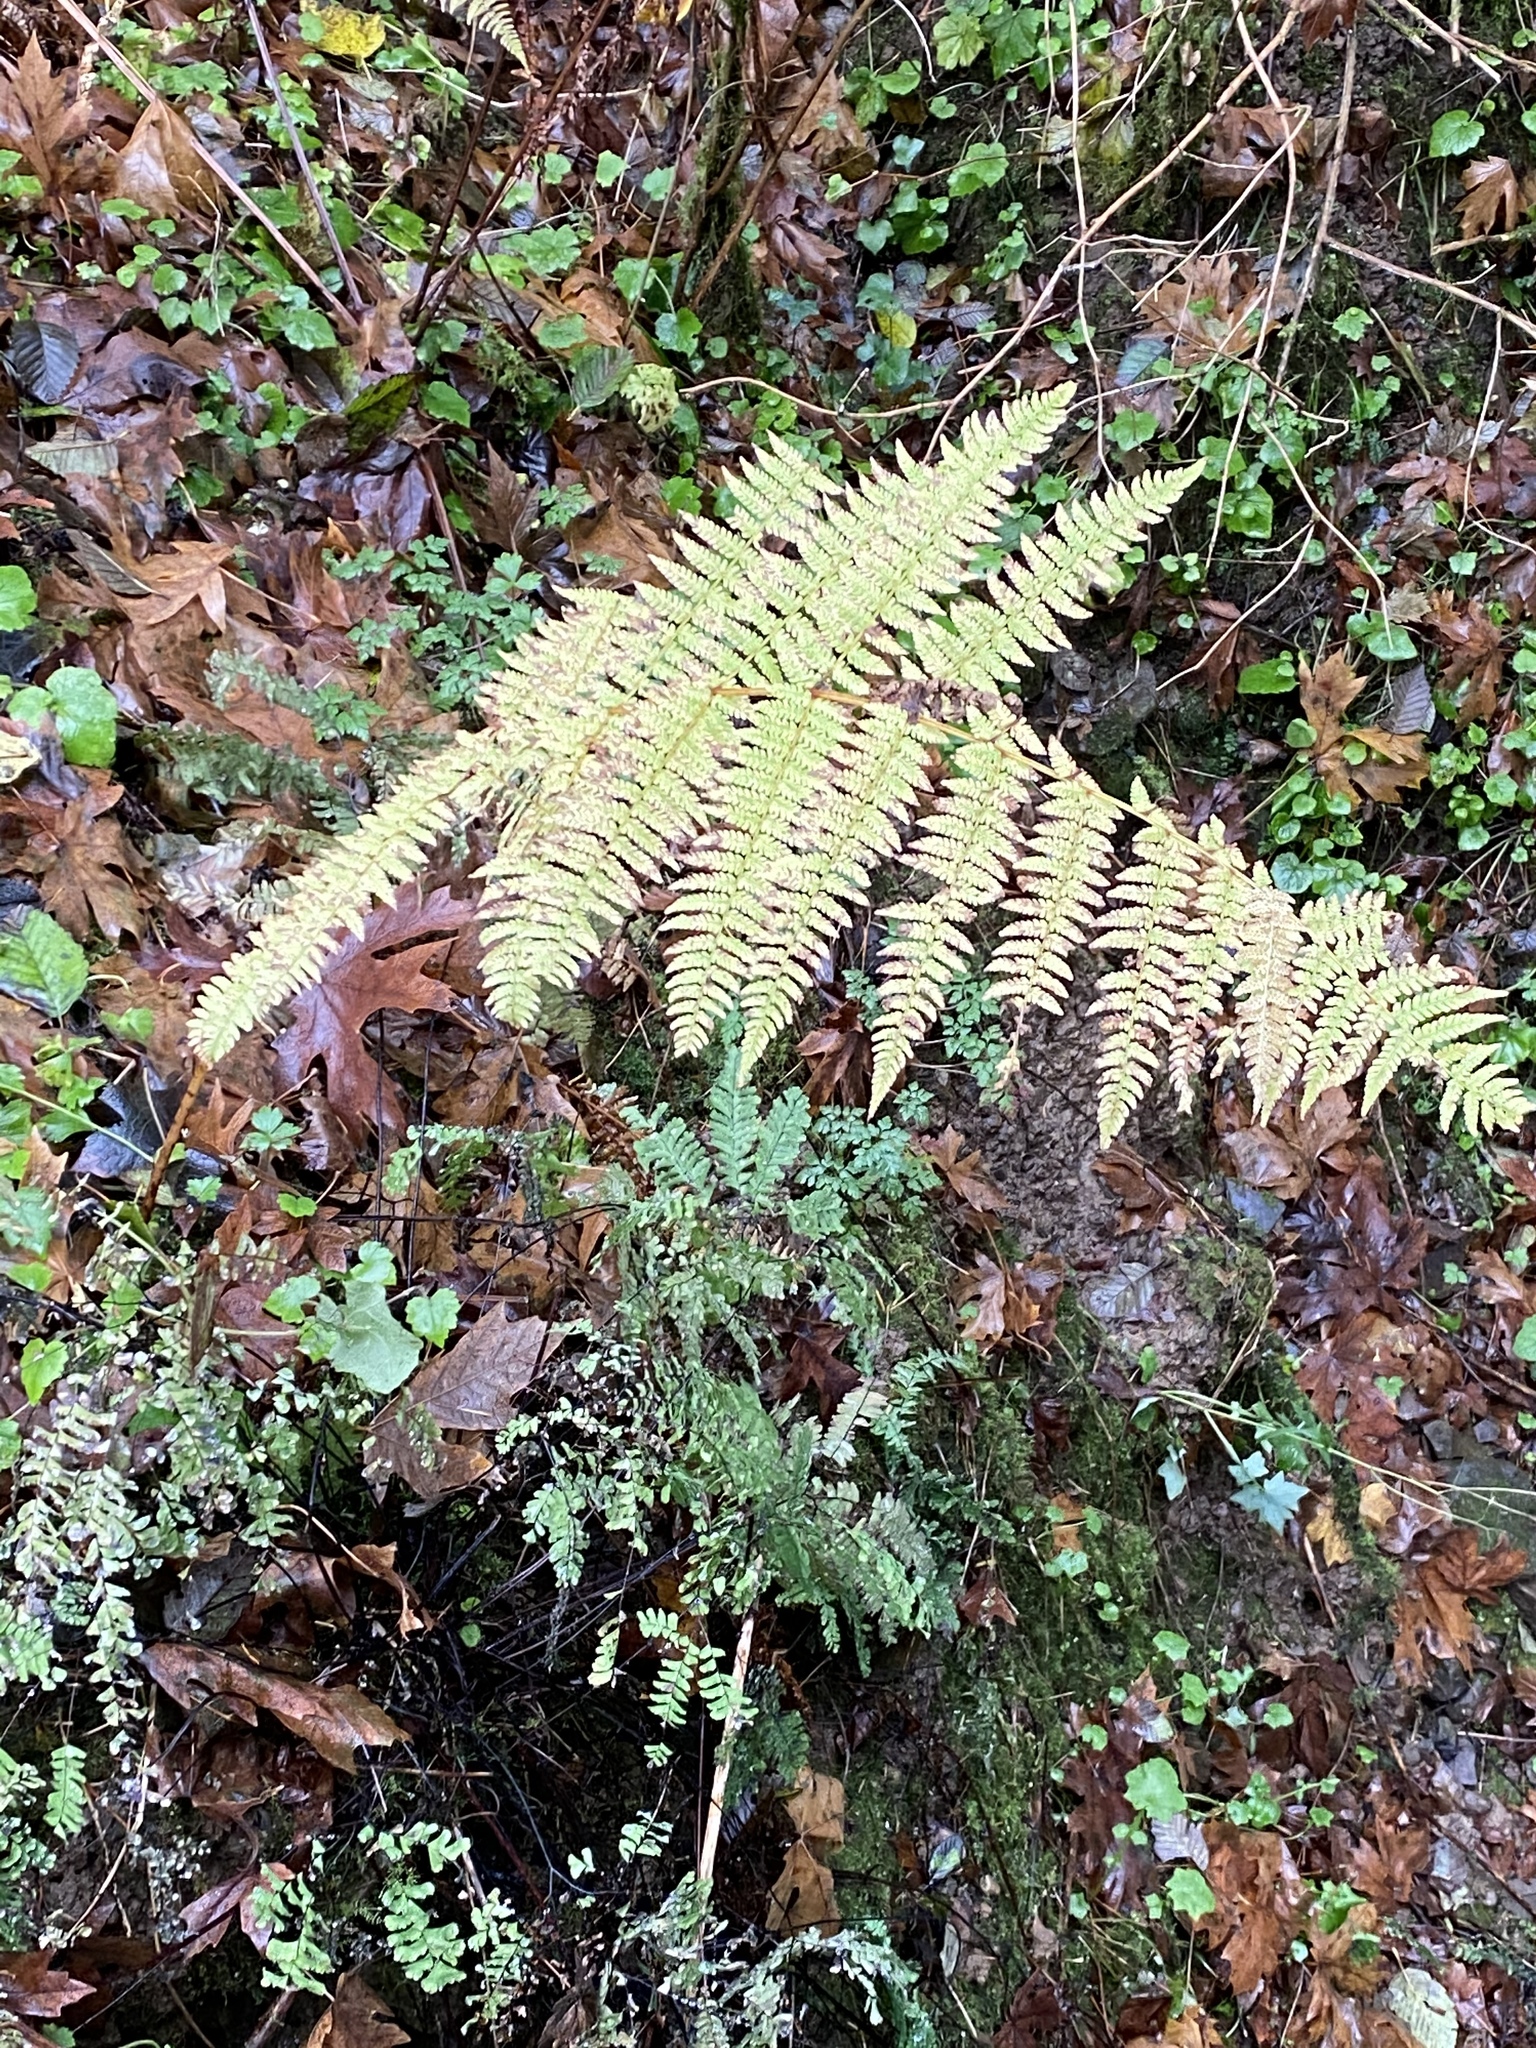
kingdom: Plantae
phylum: Tracheophyta
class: Polypodiopsida
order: Polypodiales
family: Athyriaceae
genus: Athyrium
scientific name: Athyrium filix-femina
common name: Lady fern
